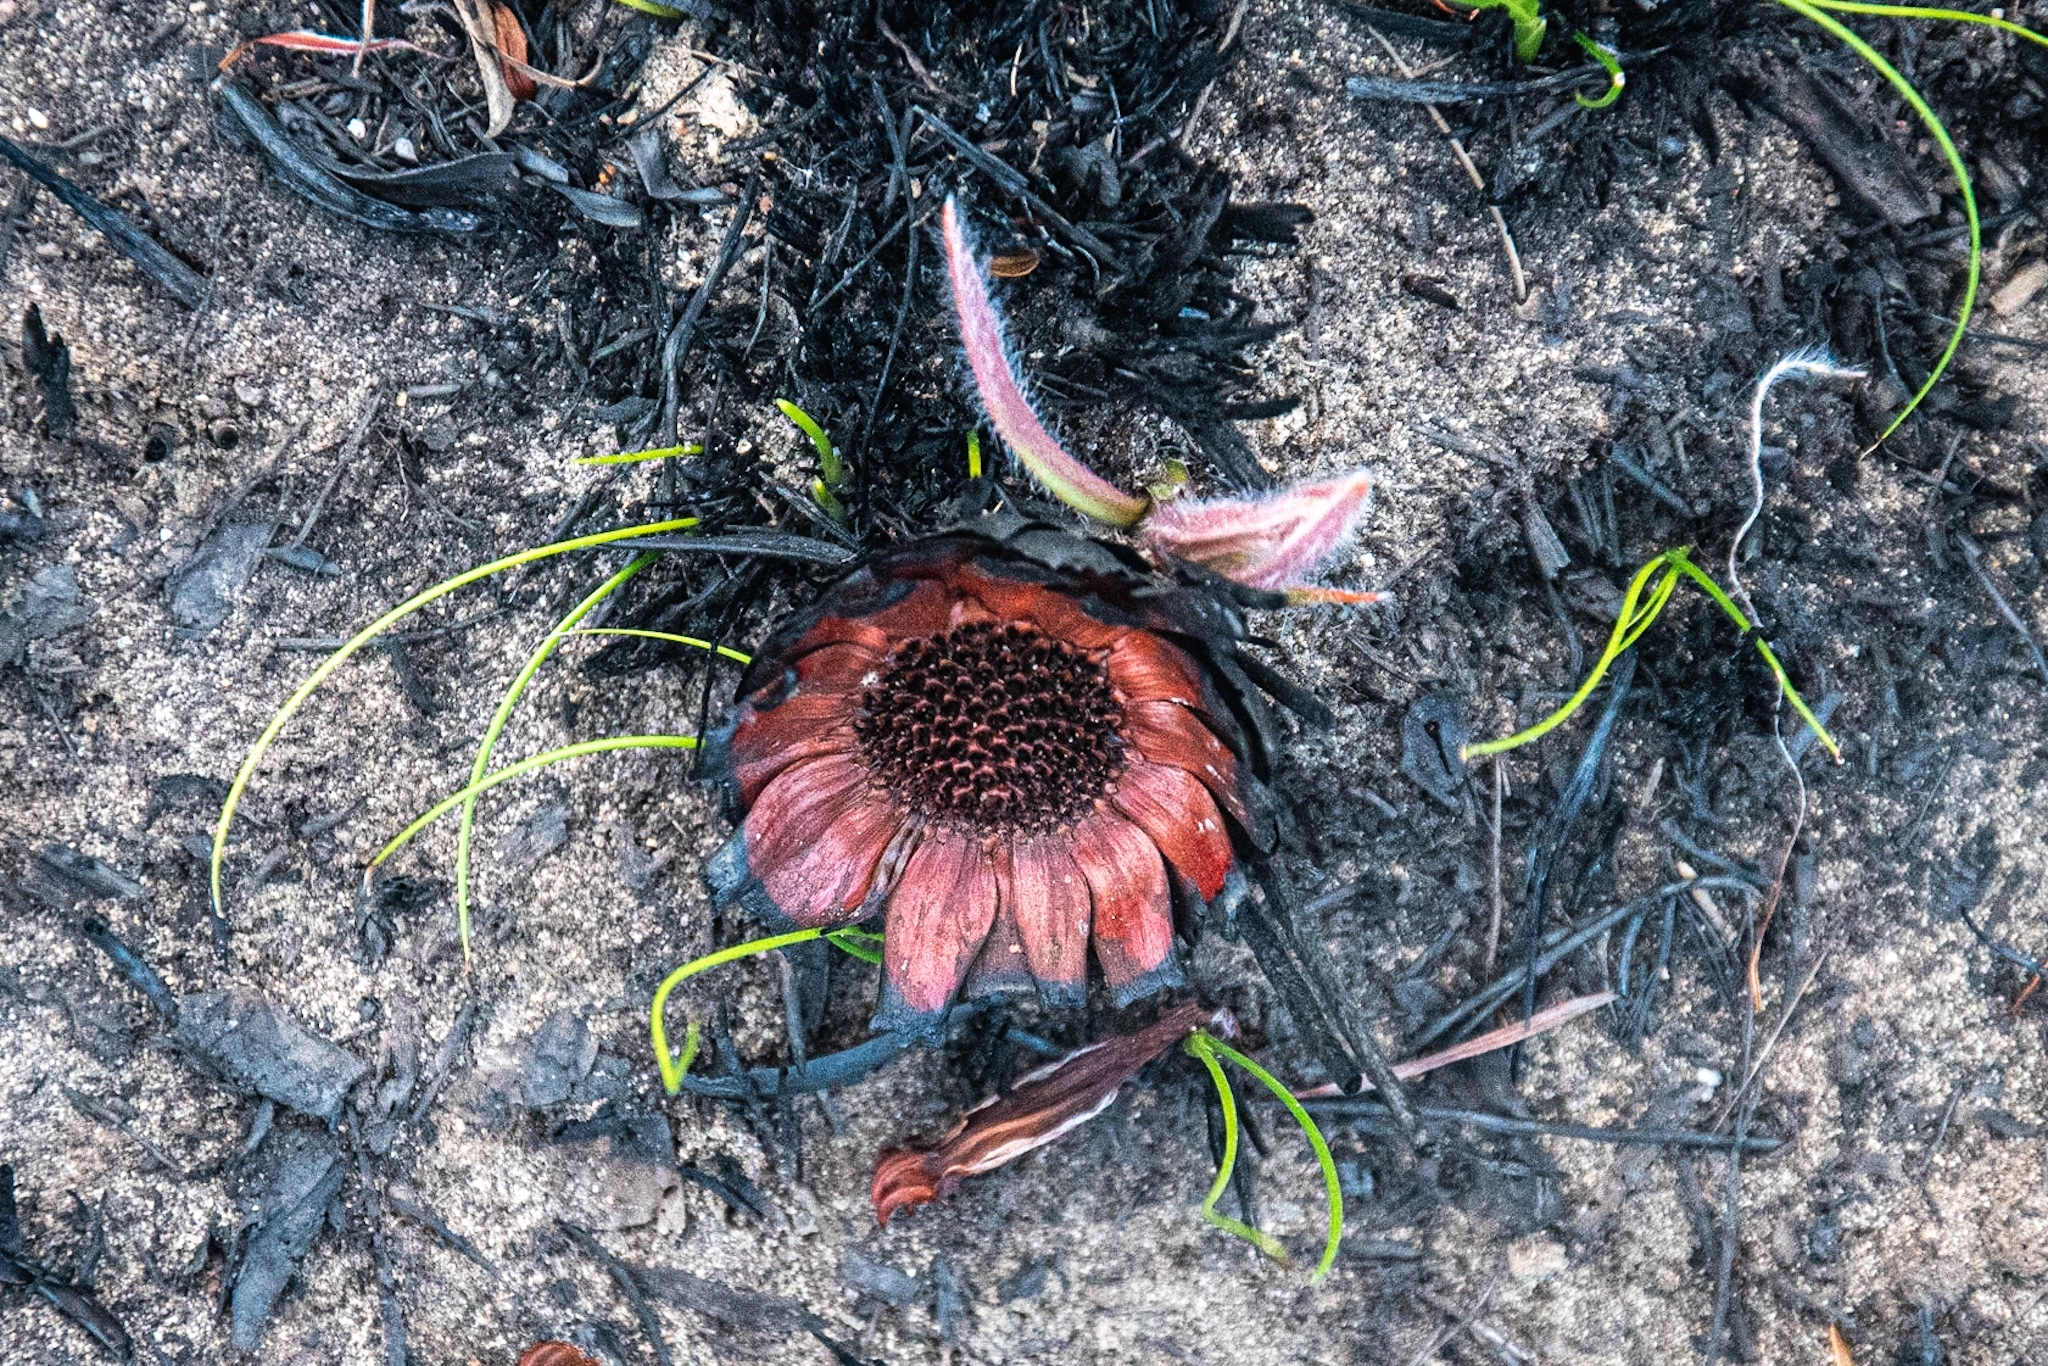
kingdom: Plantae
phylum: Tracheophyta
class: Magnoliopsida
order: Proteales
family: Proteaceae
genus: Protea
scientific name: Protea scabra
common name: Sandpaper-leaf sugarbush
